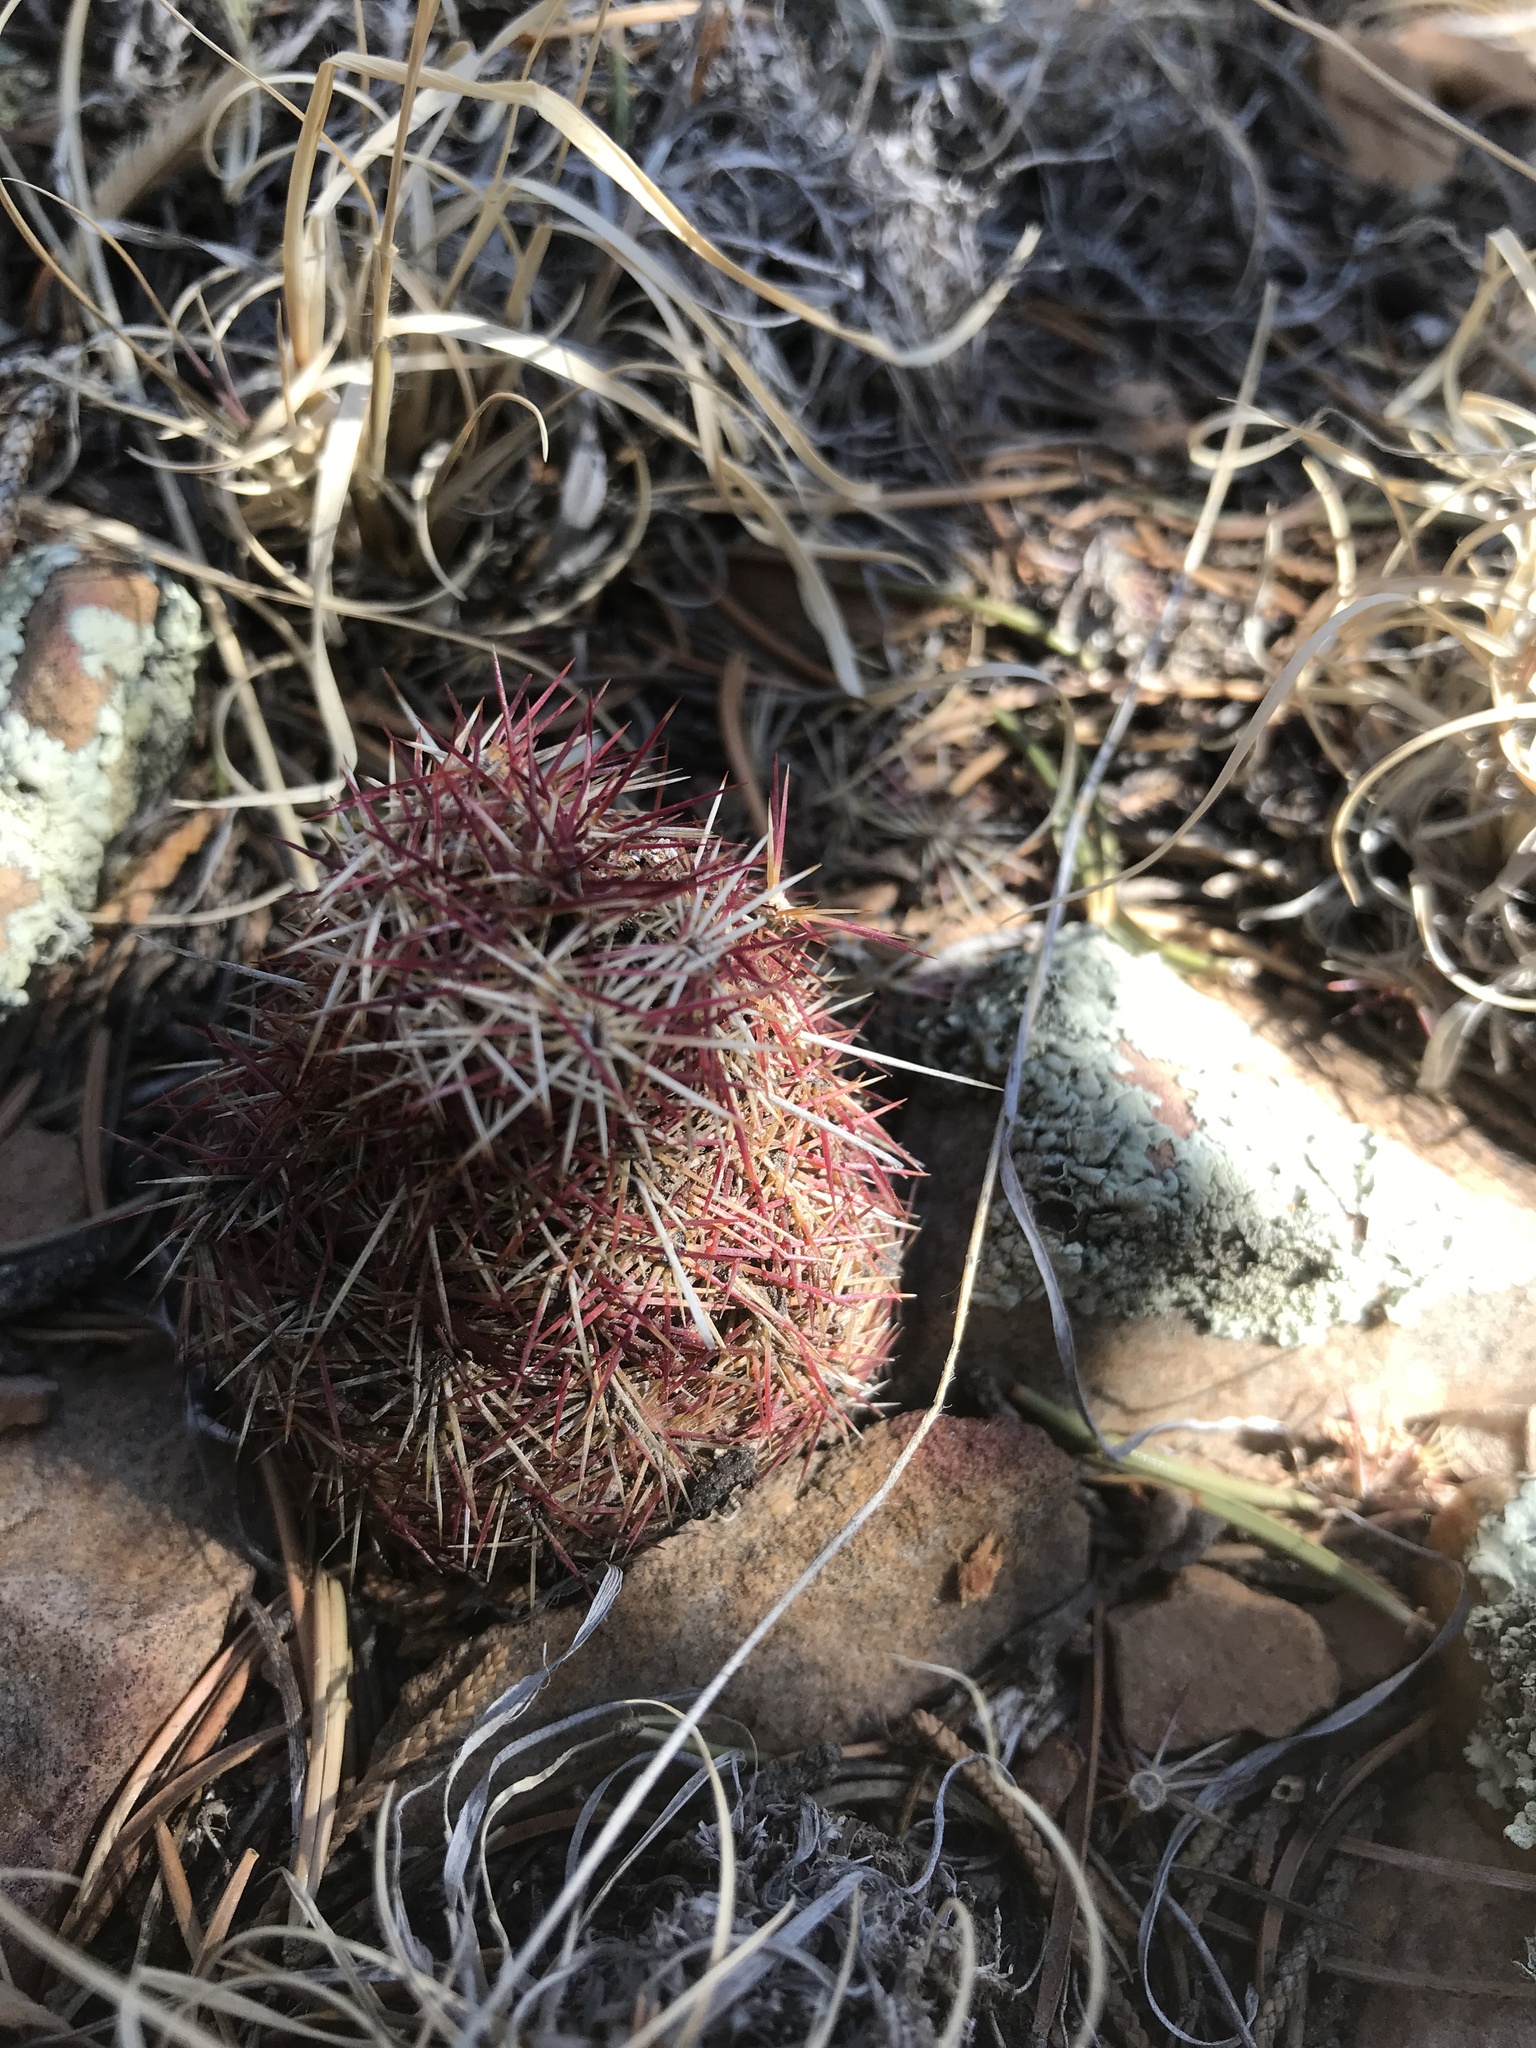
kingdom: Plantae
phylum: Tracheophyta
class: Magnoliopsida
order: Caryophyllales
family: Cactaceae
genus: Echinocereus
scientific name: Echinocereus viridiflorus
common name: Nylon hedgehog cactus
